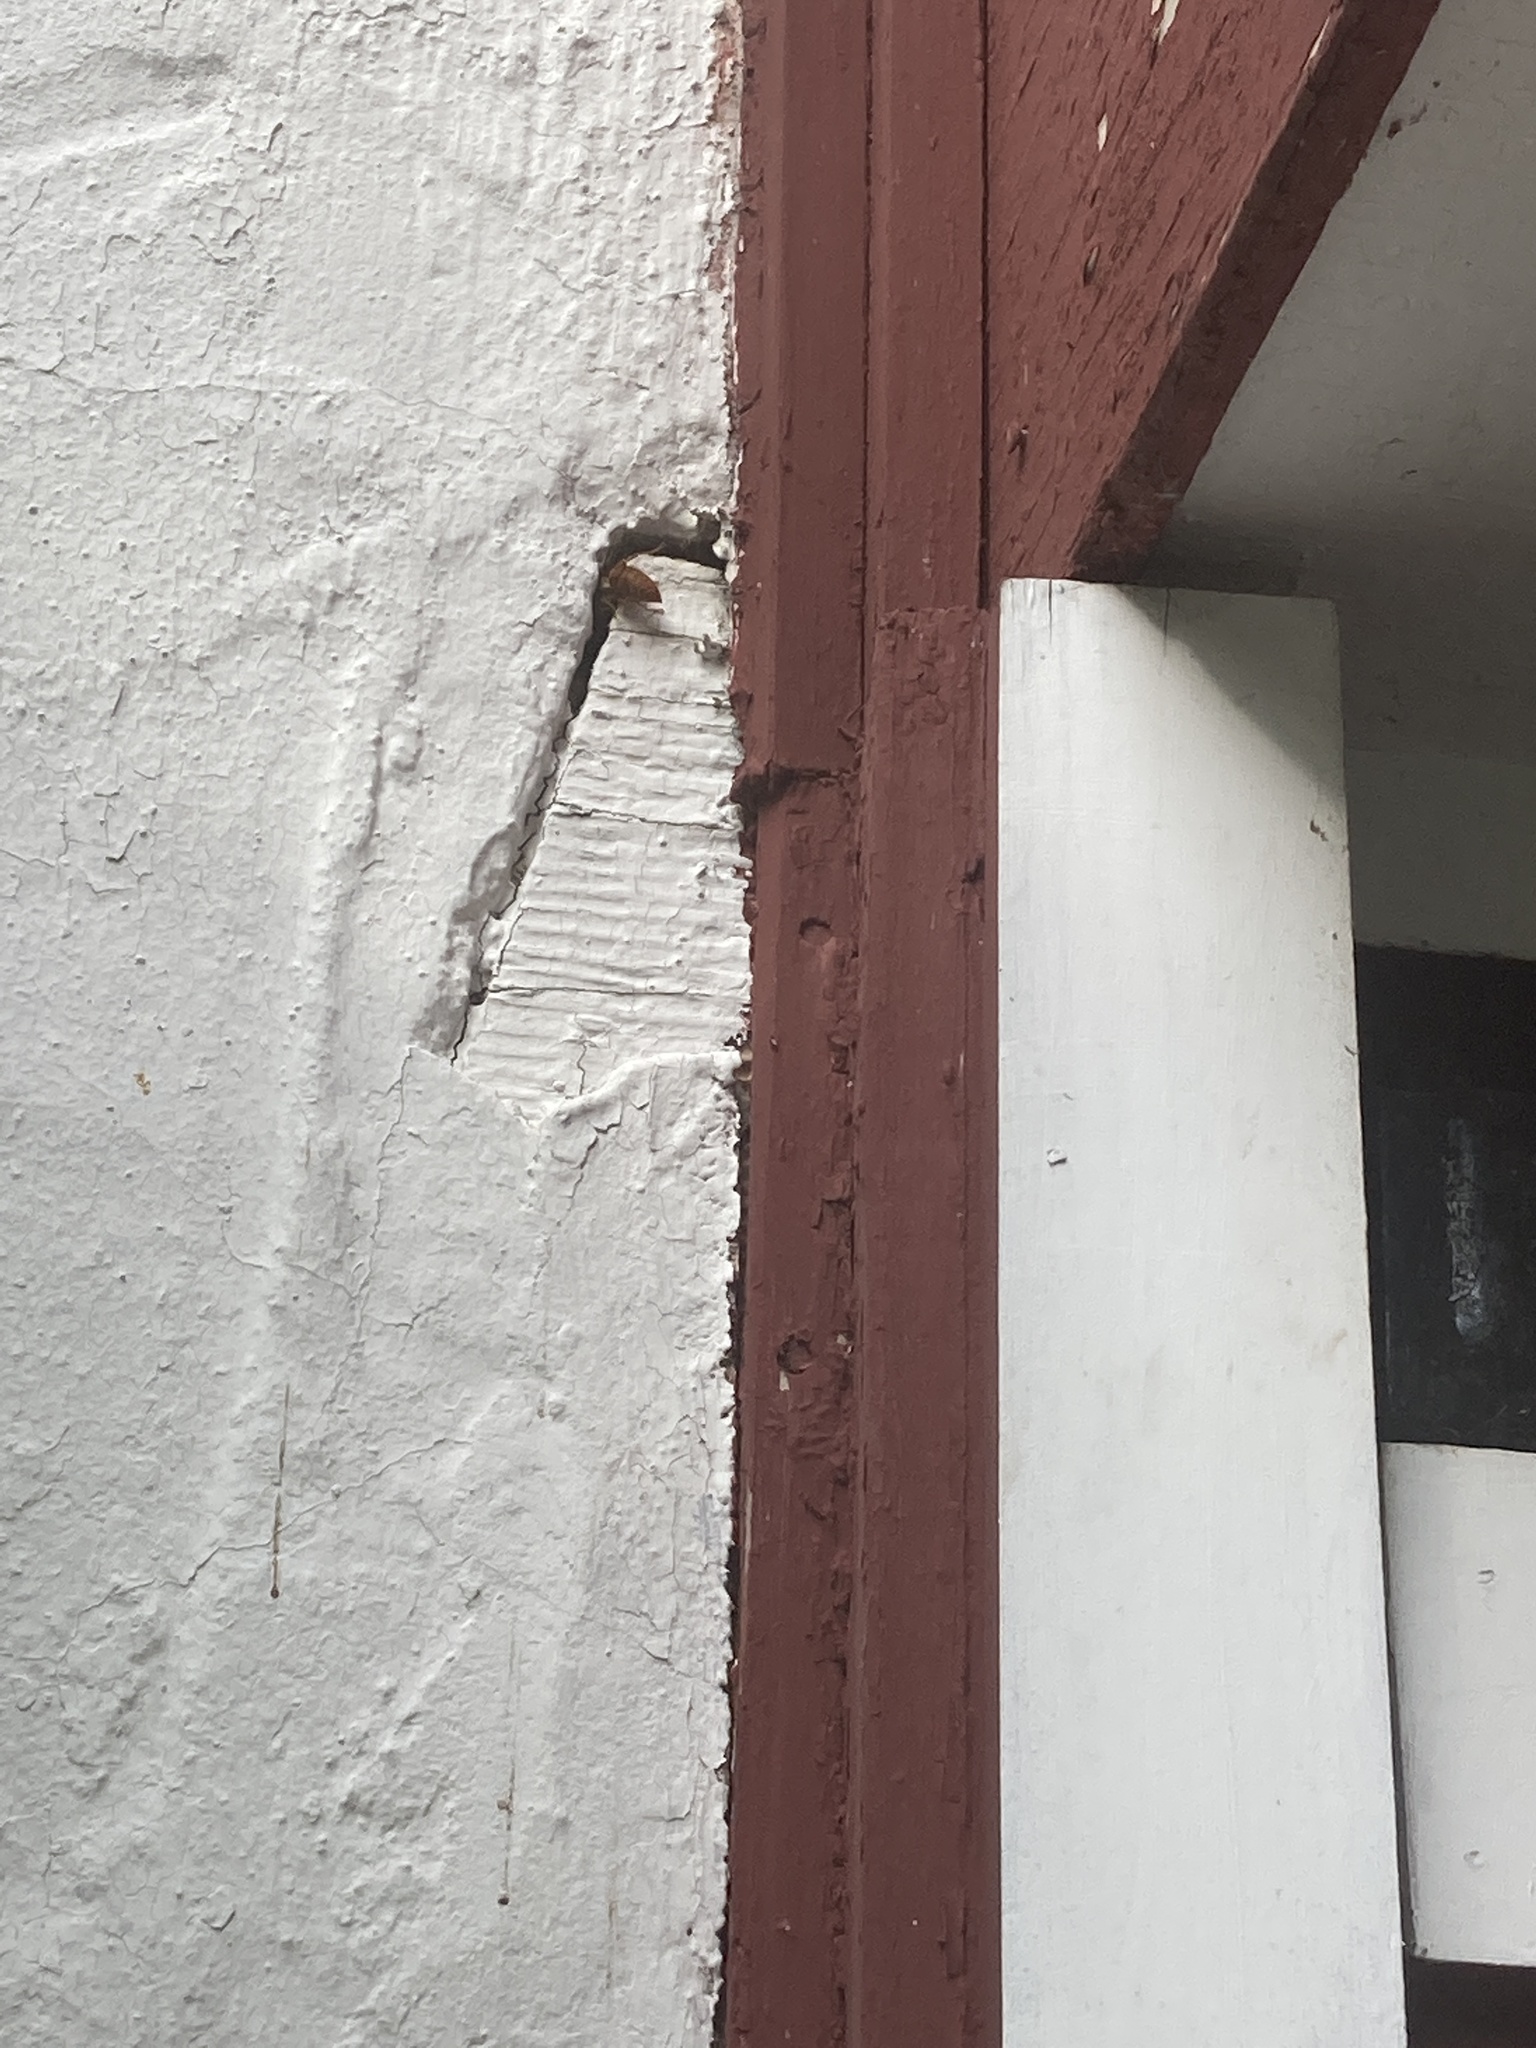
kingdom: Animalia
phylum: Arthropoda
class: Insecta
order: Hymenoptera
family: Vespidae
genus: Vespula
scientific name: Vespula squamosa
